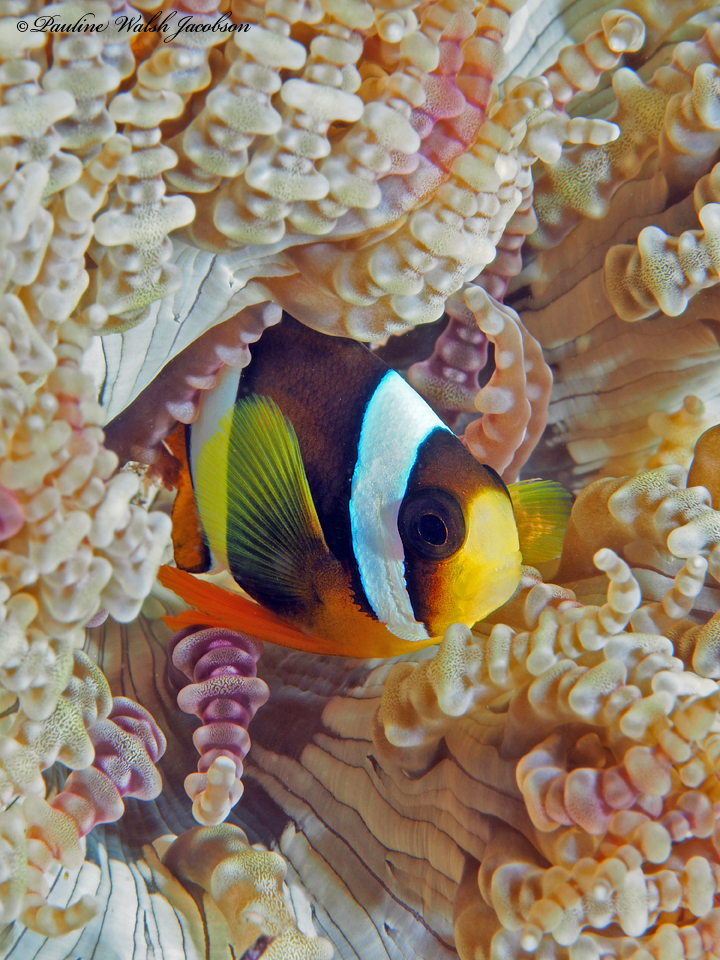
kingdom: Animalia
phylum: Chordata
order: Perciformes
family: Pomacentridae
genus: Amphiprion
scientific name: Amphiprion clarkii
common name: Clark's anemonefish
